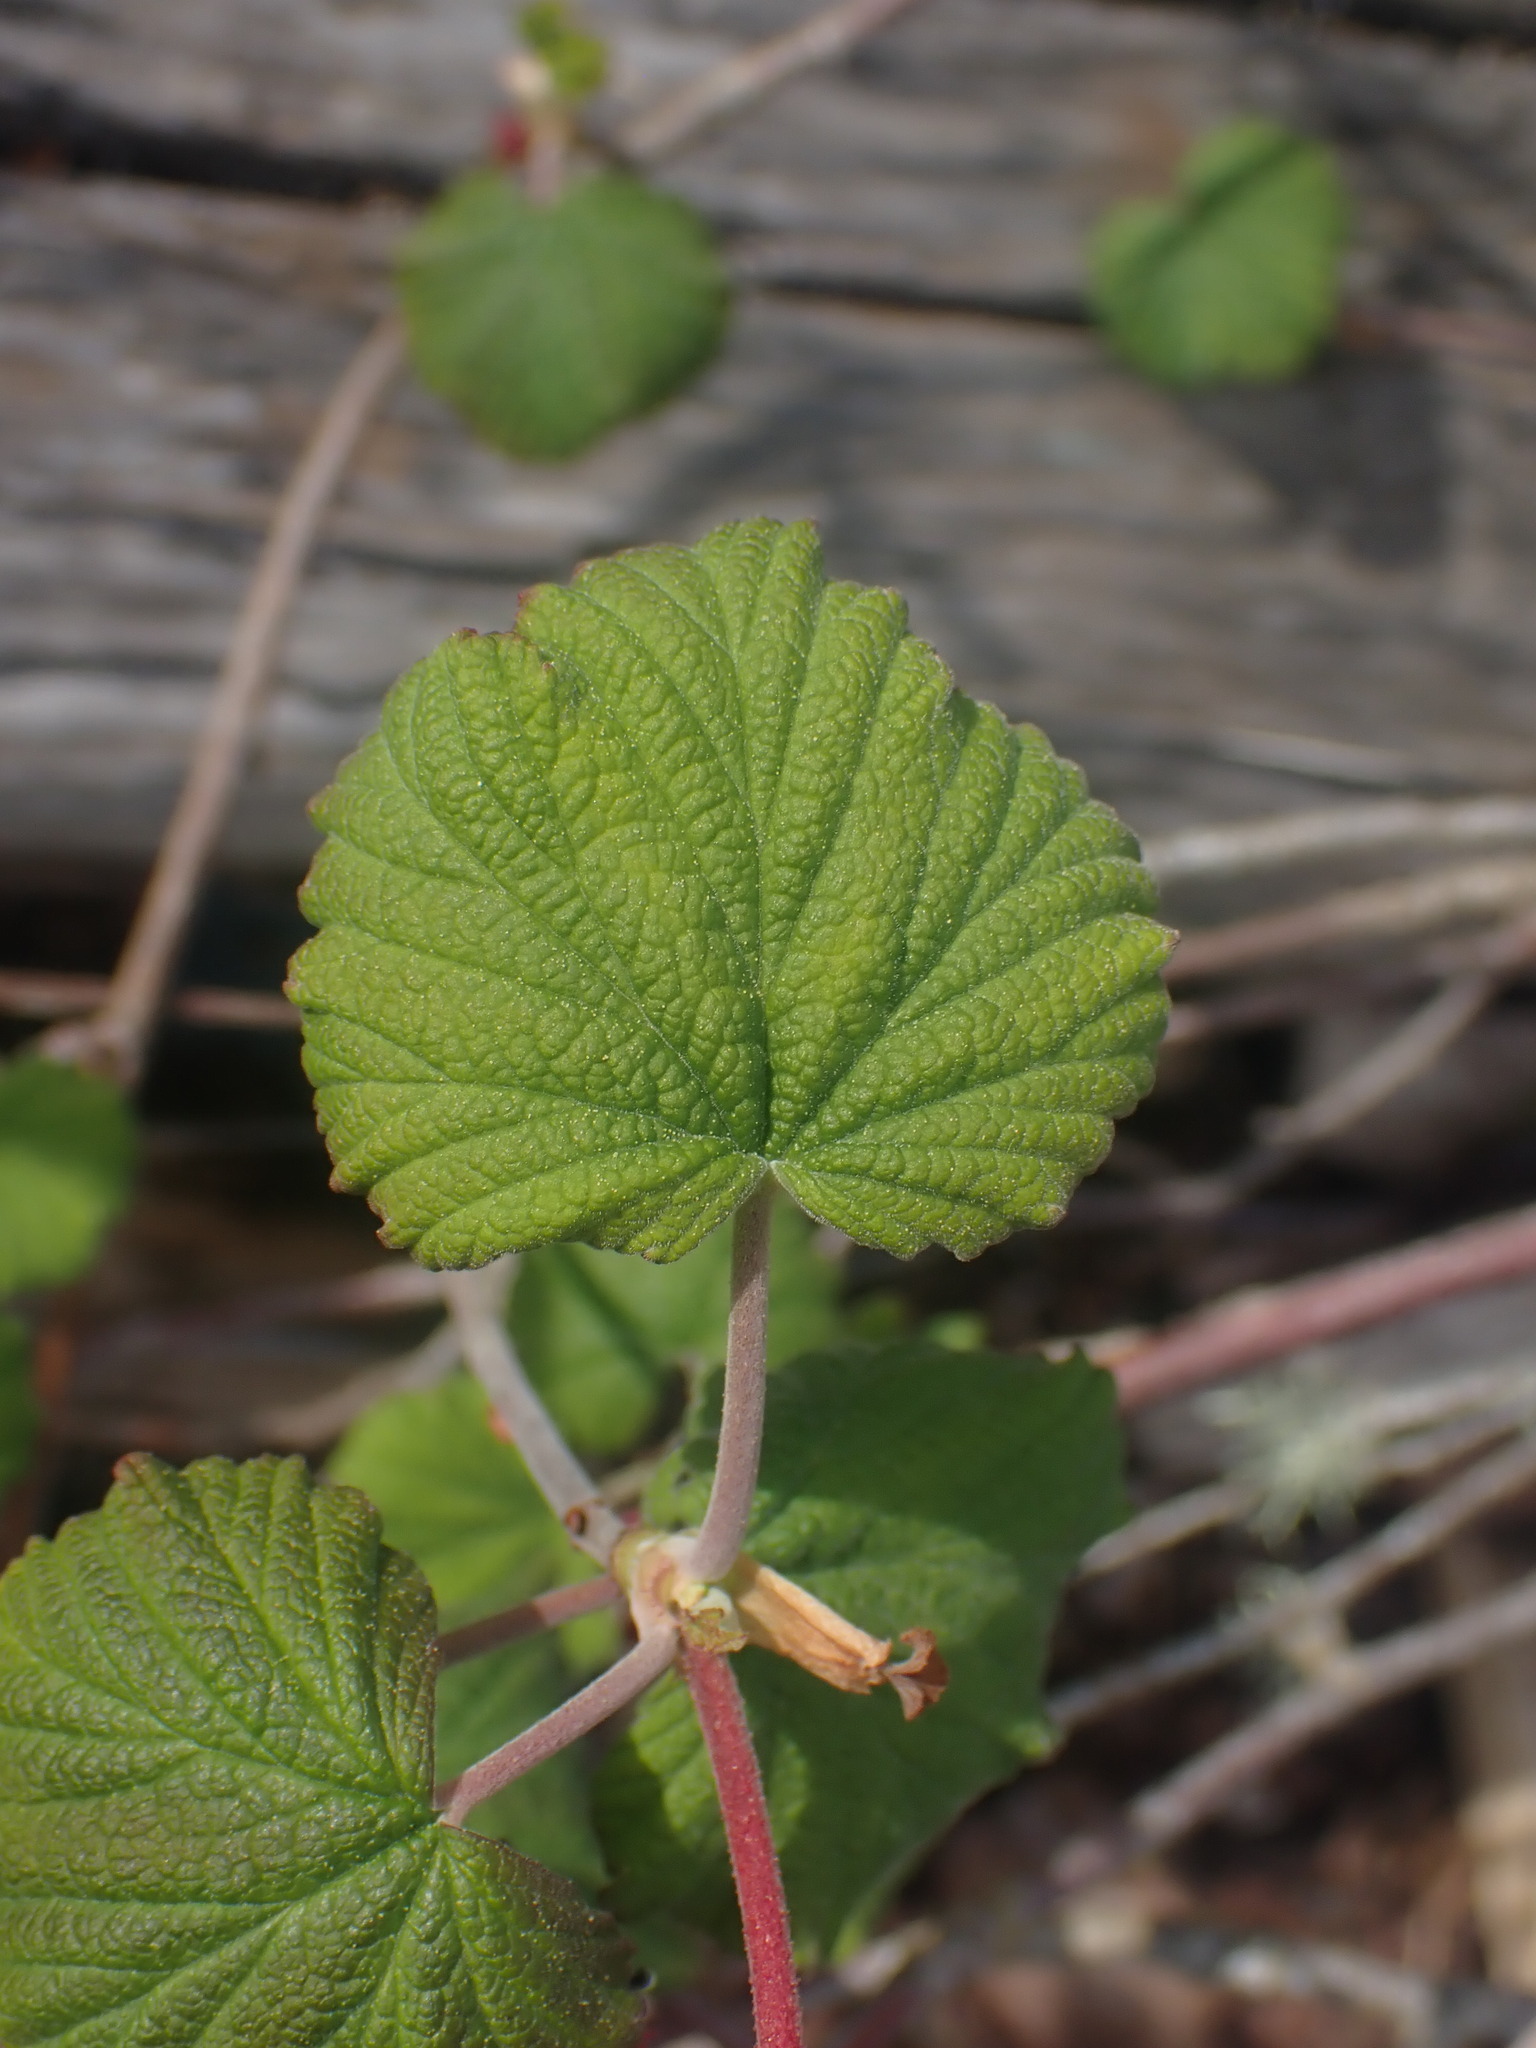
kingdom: Plantae
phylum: Tracheophyta
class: Magnoliopsida
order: Saxifragales
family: Grossulariaceae
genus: Ribes
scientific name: Ribes sanguineum
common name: Flowering currant
